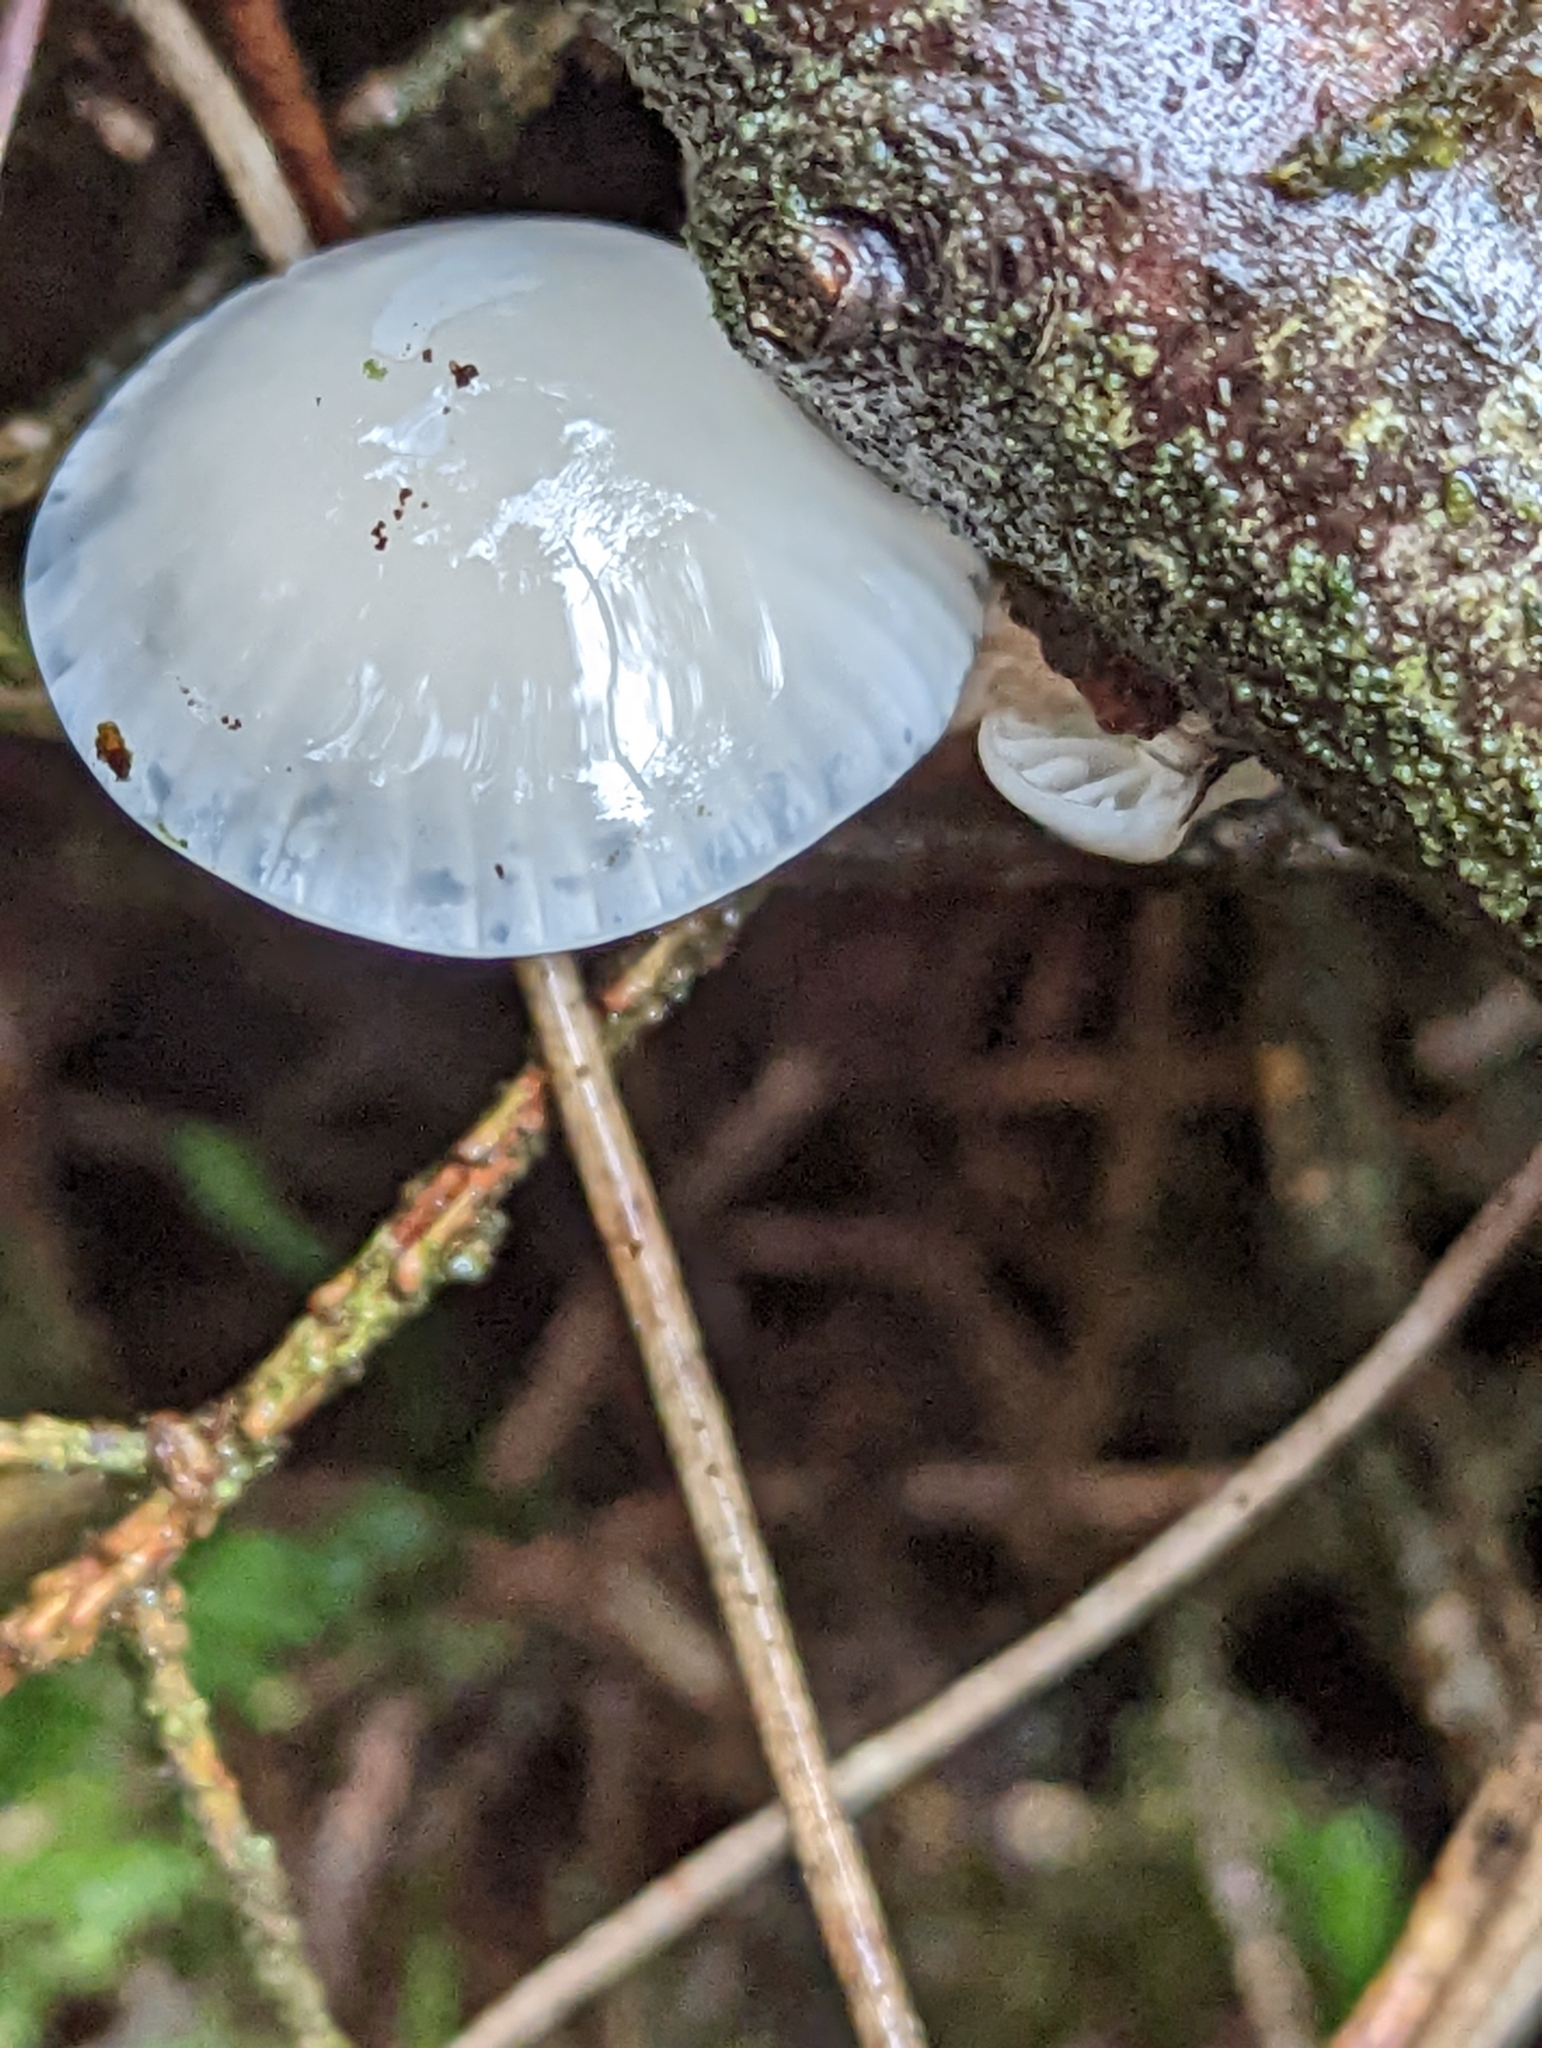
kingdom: Fungi
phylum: Basidiomycota
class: Agaricomycetes
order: Agaricales
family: Physalacriaceae
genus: Mucidula
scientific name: Mucidula mucida
